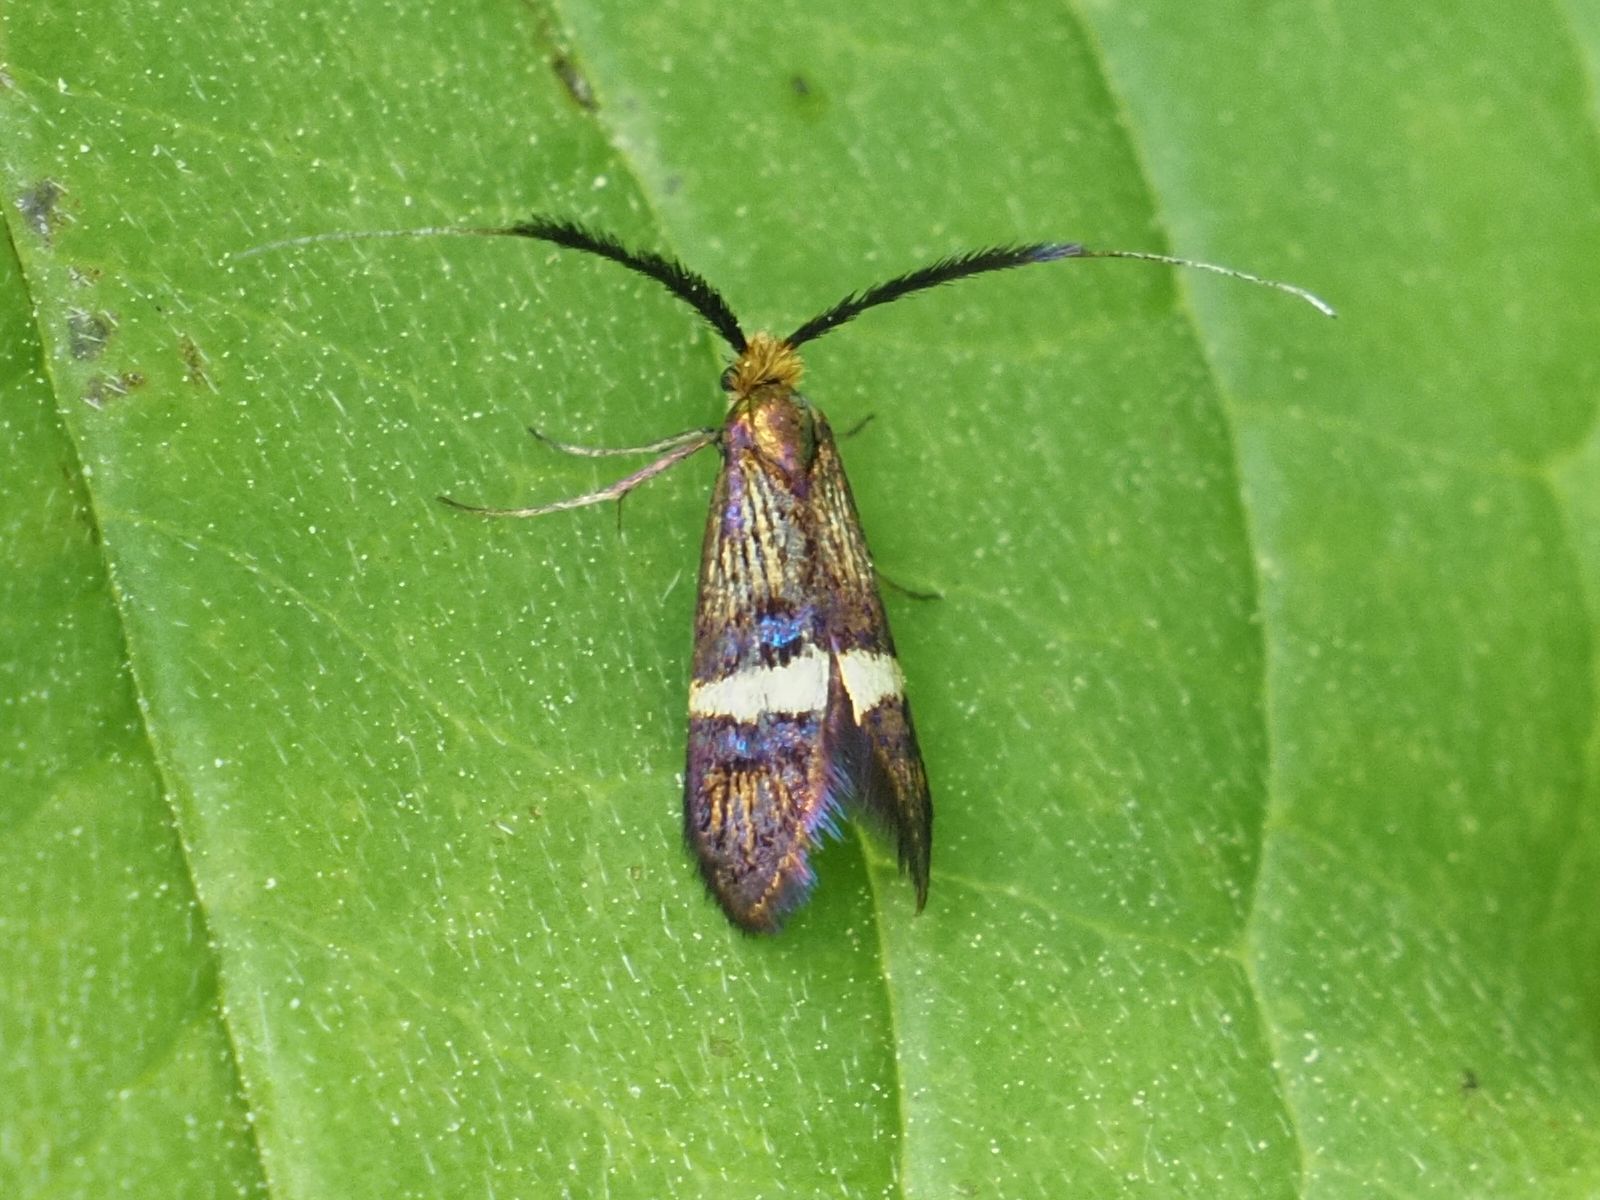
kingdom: Animalia
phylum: Arthropoda
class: Insecta
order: Lepidoptera
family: Adelidae
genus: Adela
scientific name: Adela croesella
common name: Small barred long-horn
